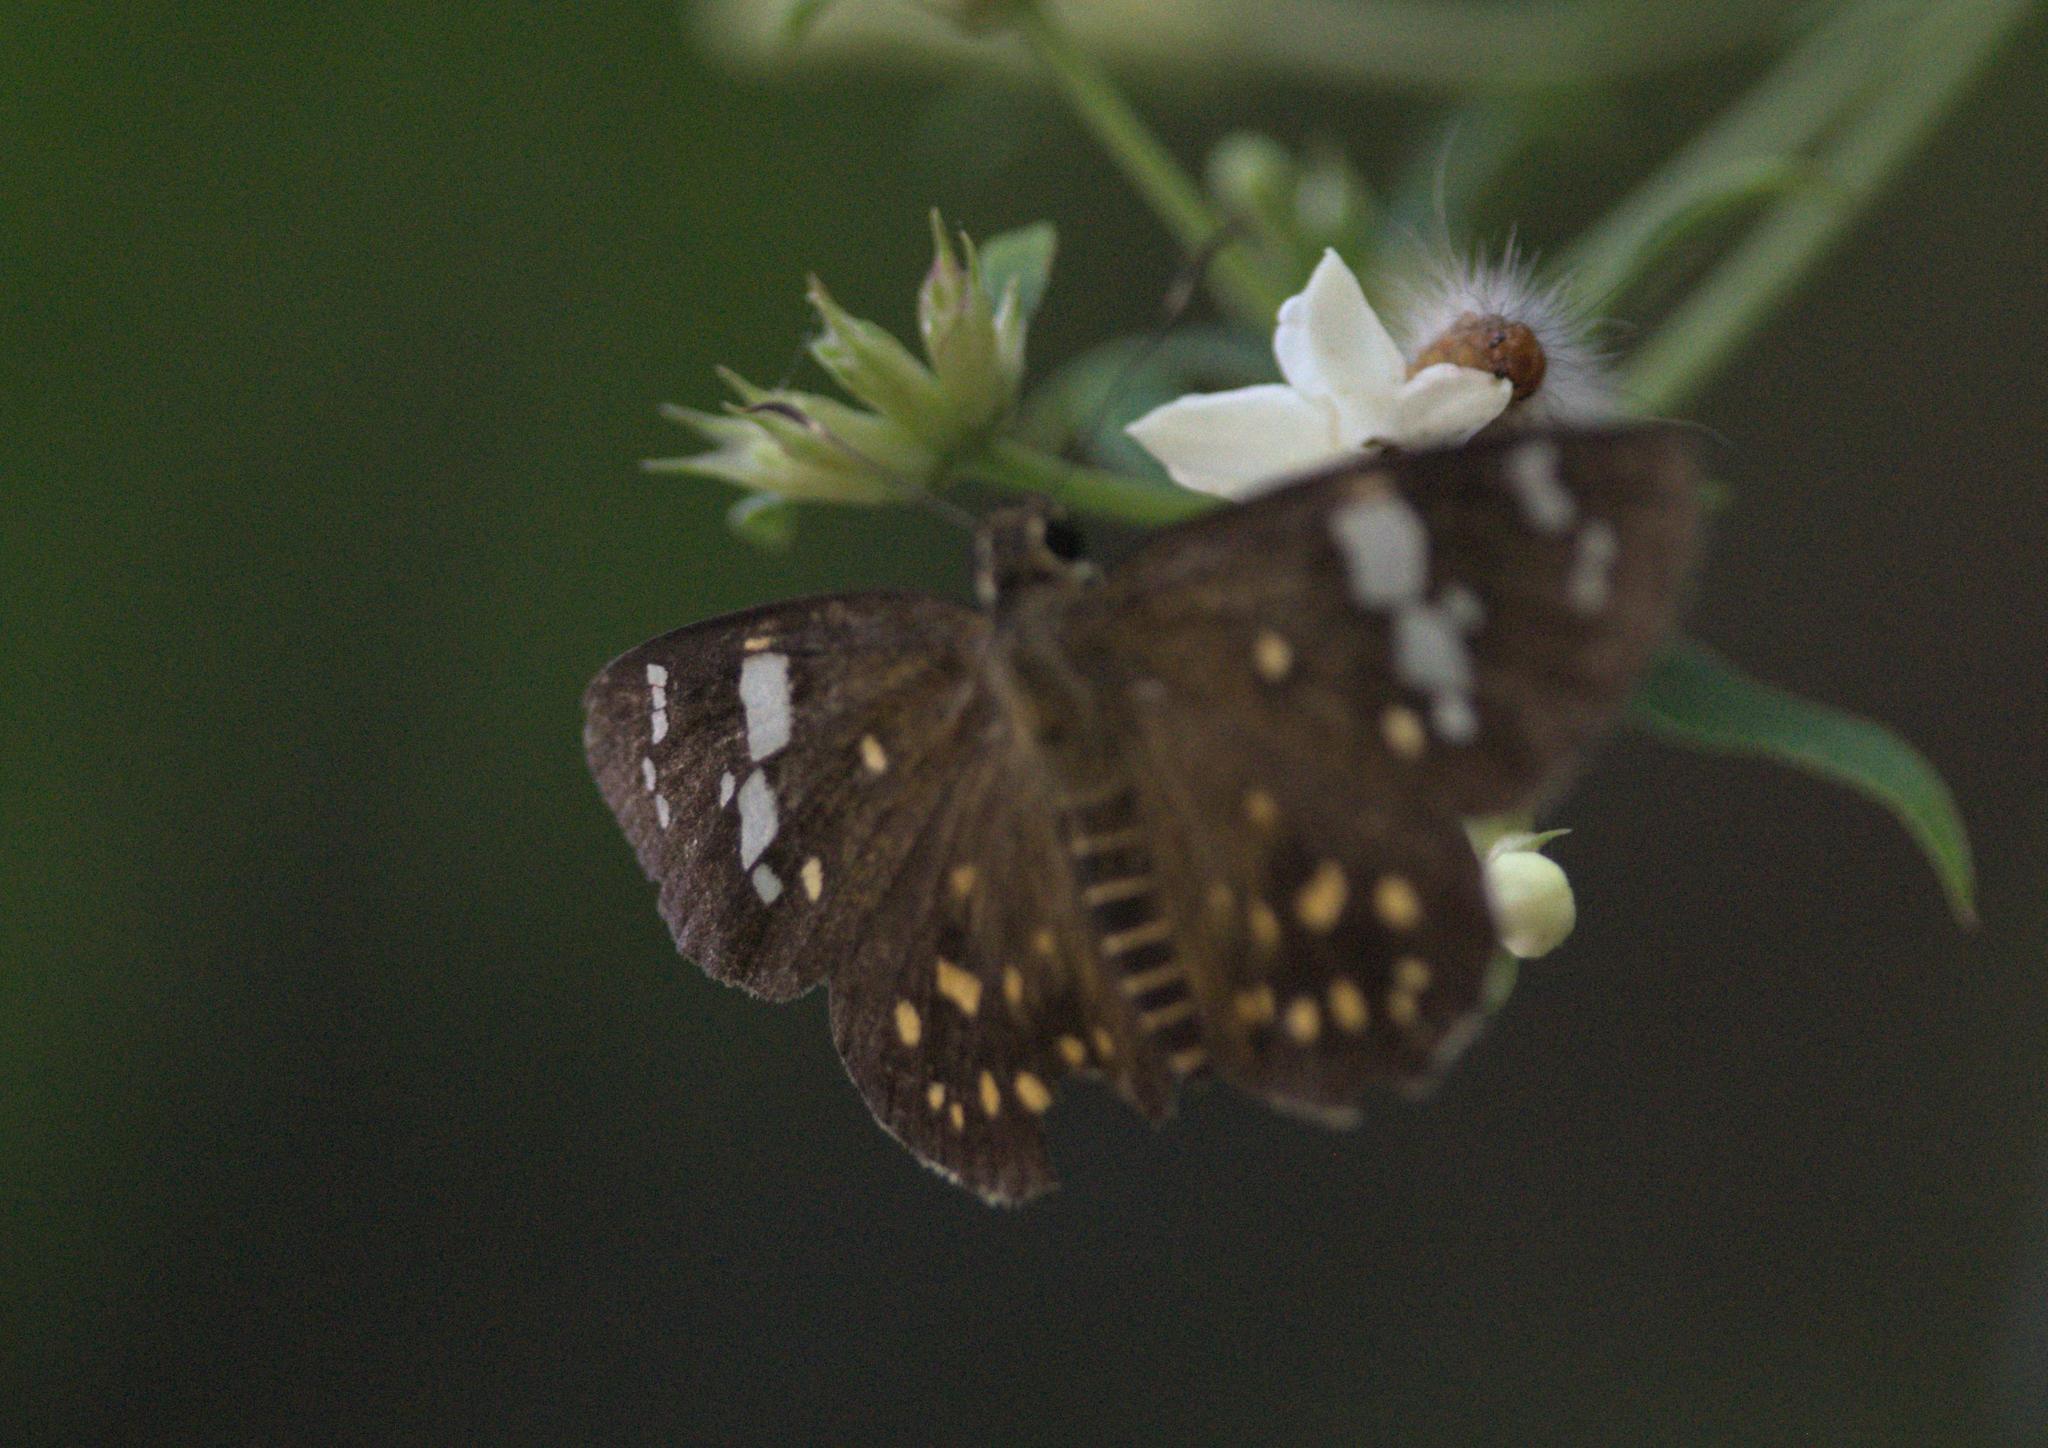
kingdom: Animalia
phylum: Arthropoda
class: Insecta
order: Lepidoptera
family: Hesperiidae
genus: Celaenorrhinus
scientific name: Celaenorrhinus ratna
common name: Ratna flat
